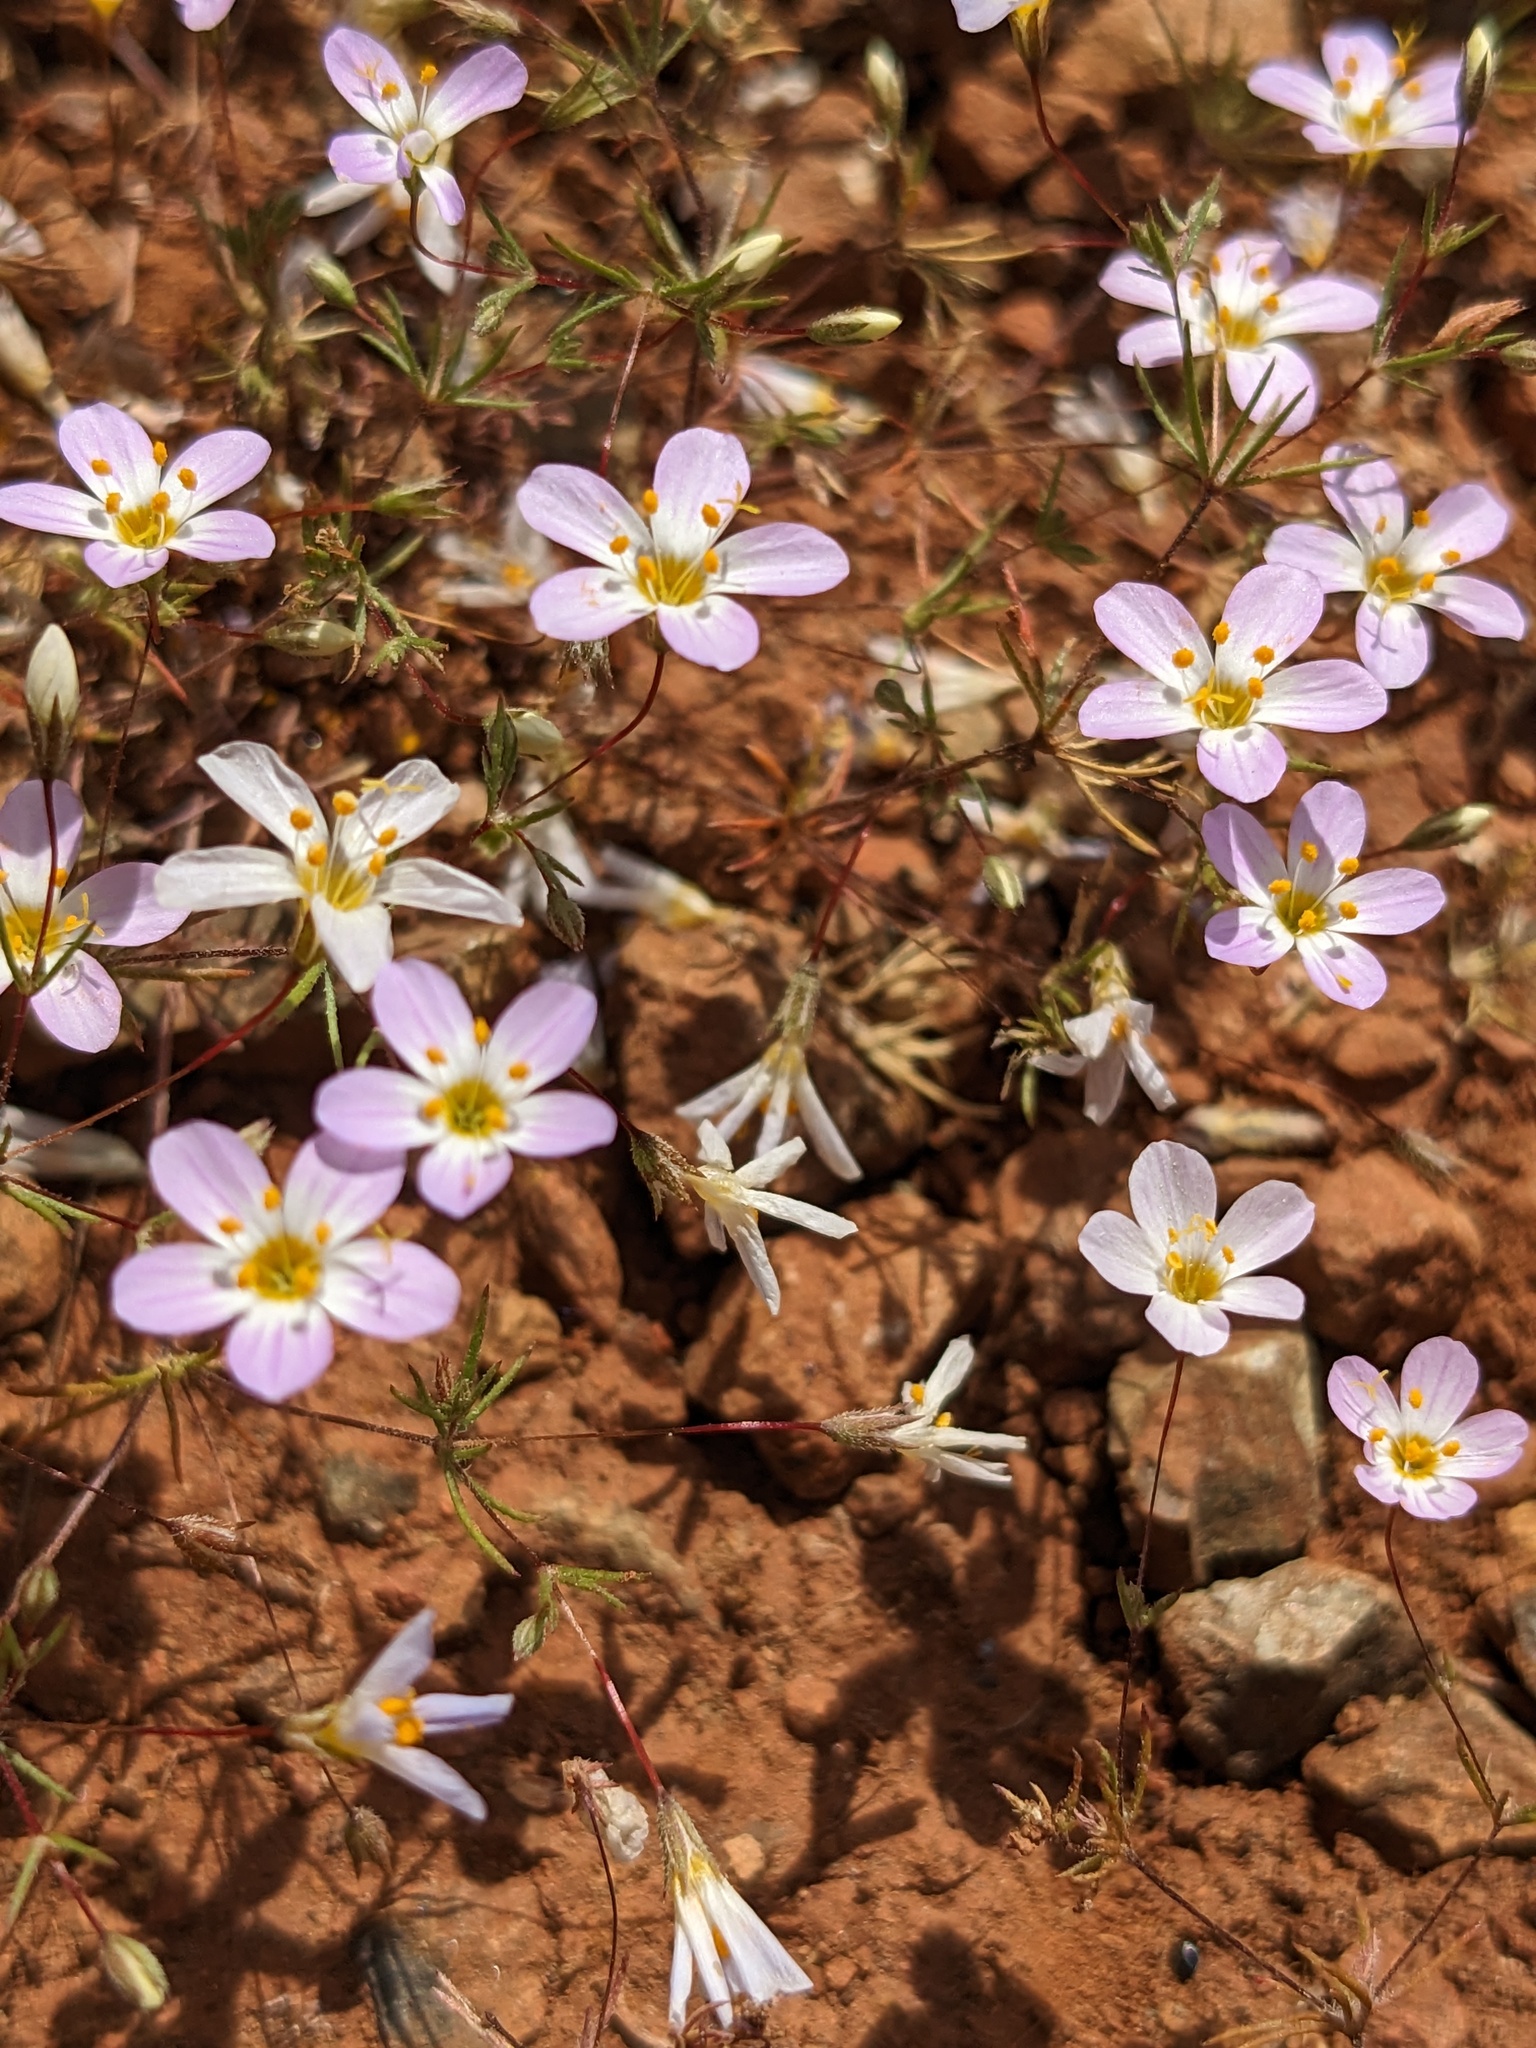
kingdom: Plantae
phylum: Tracheophyta
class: Magnoliopsida
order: Ericales
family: Polemoniaceae
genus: Leptosiphon
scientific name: Leptosiphon filipes
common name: Thread linanthus
